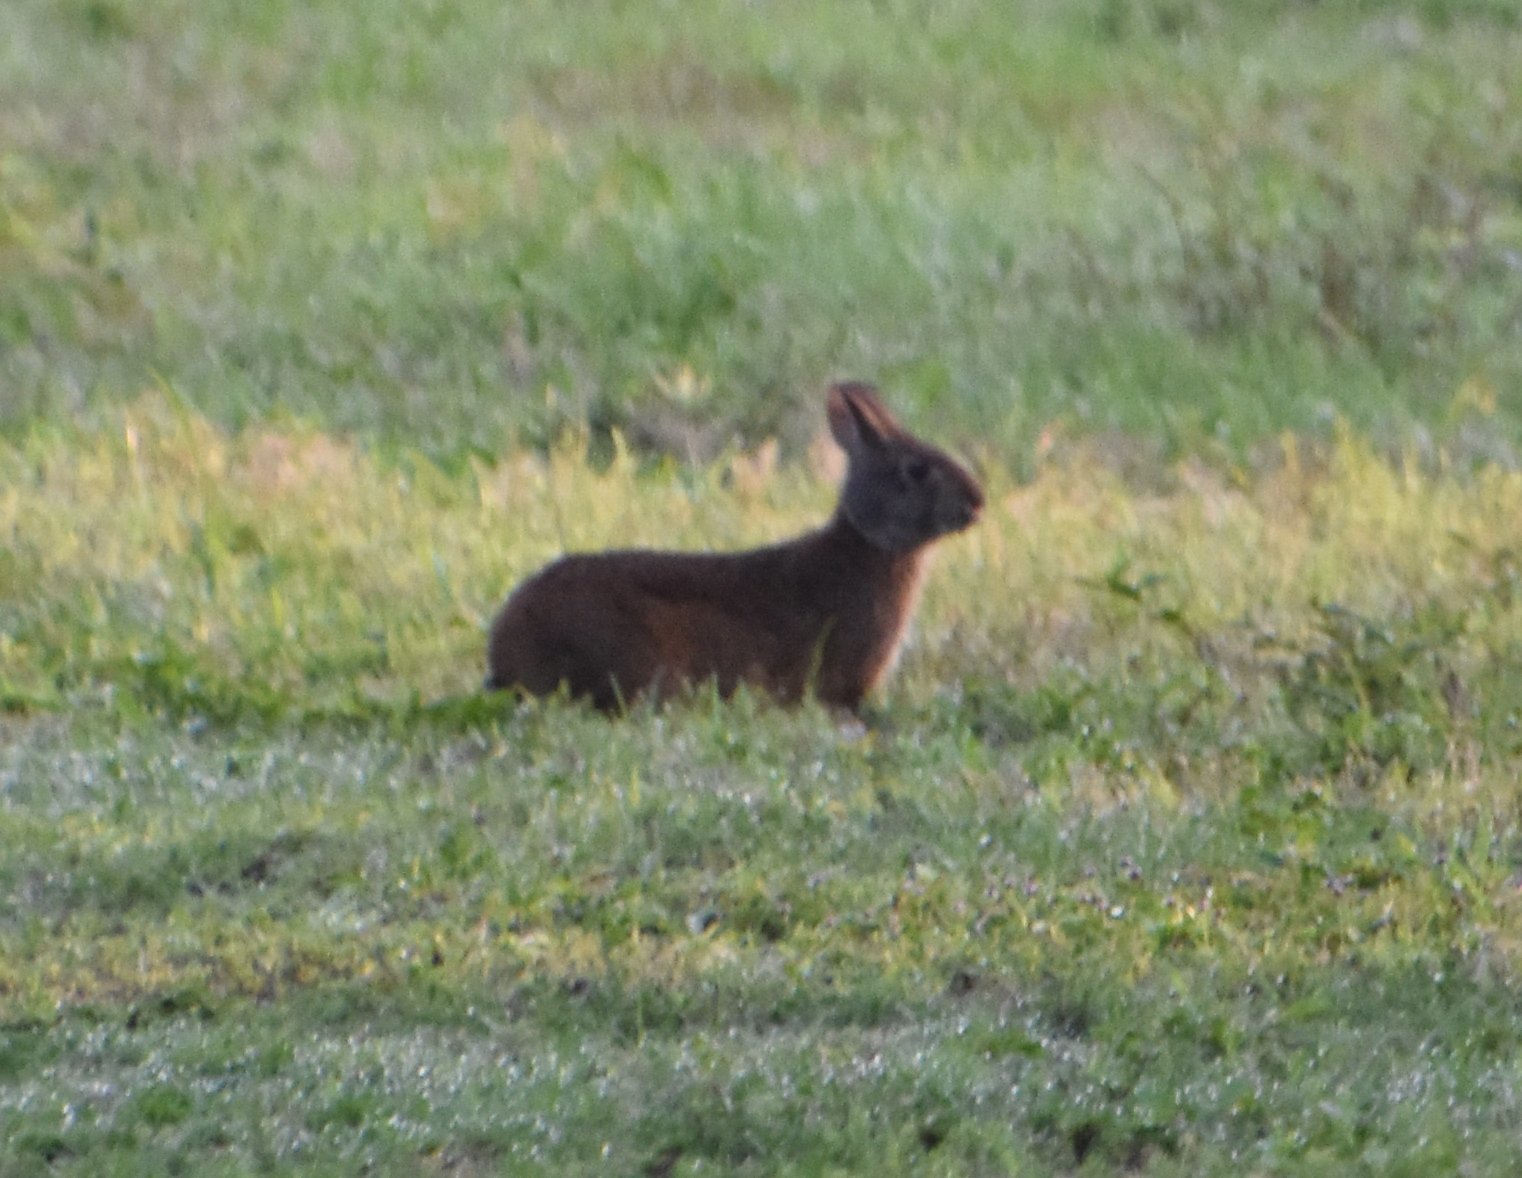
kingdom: Animalia
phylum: Chordata
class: Mammalia
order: Lagomorpha
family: Leporidae
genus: Sylvilagus
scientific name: Sylvilagus palustris
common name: Marsh rabbit
